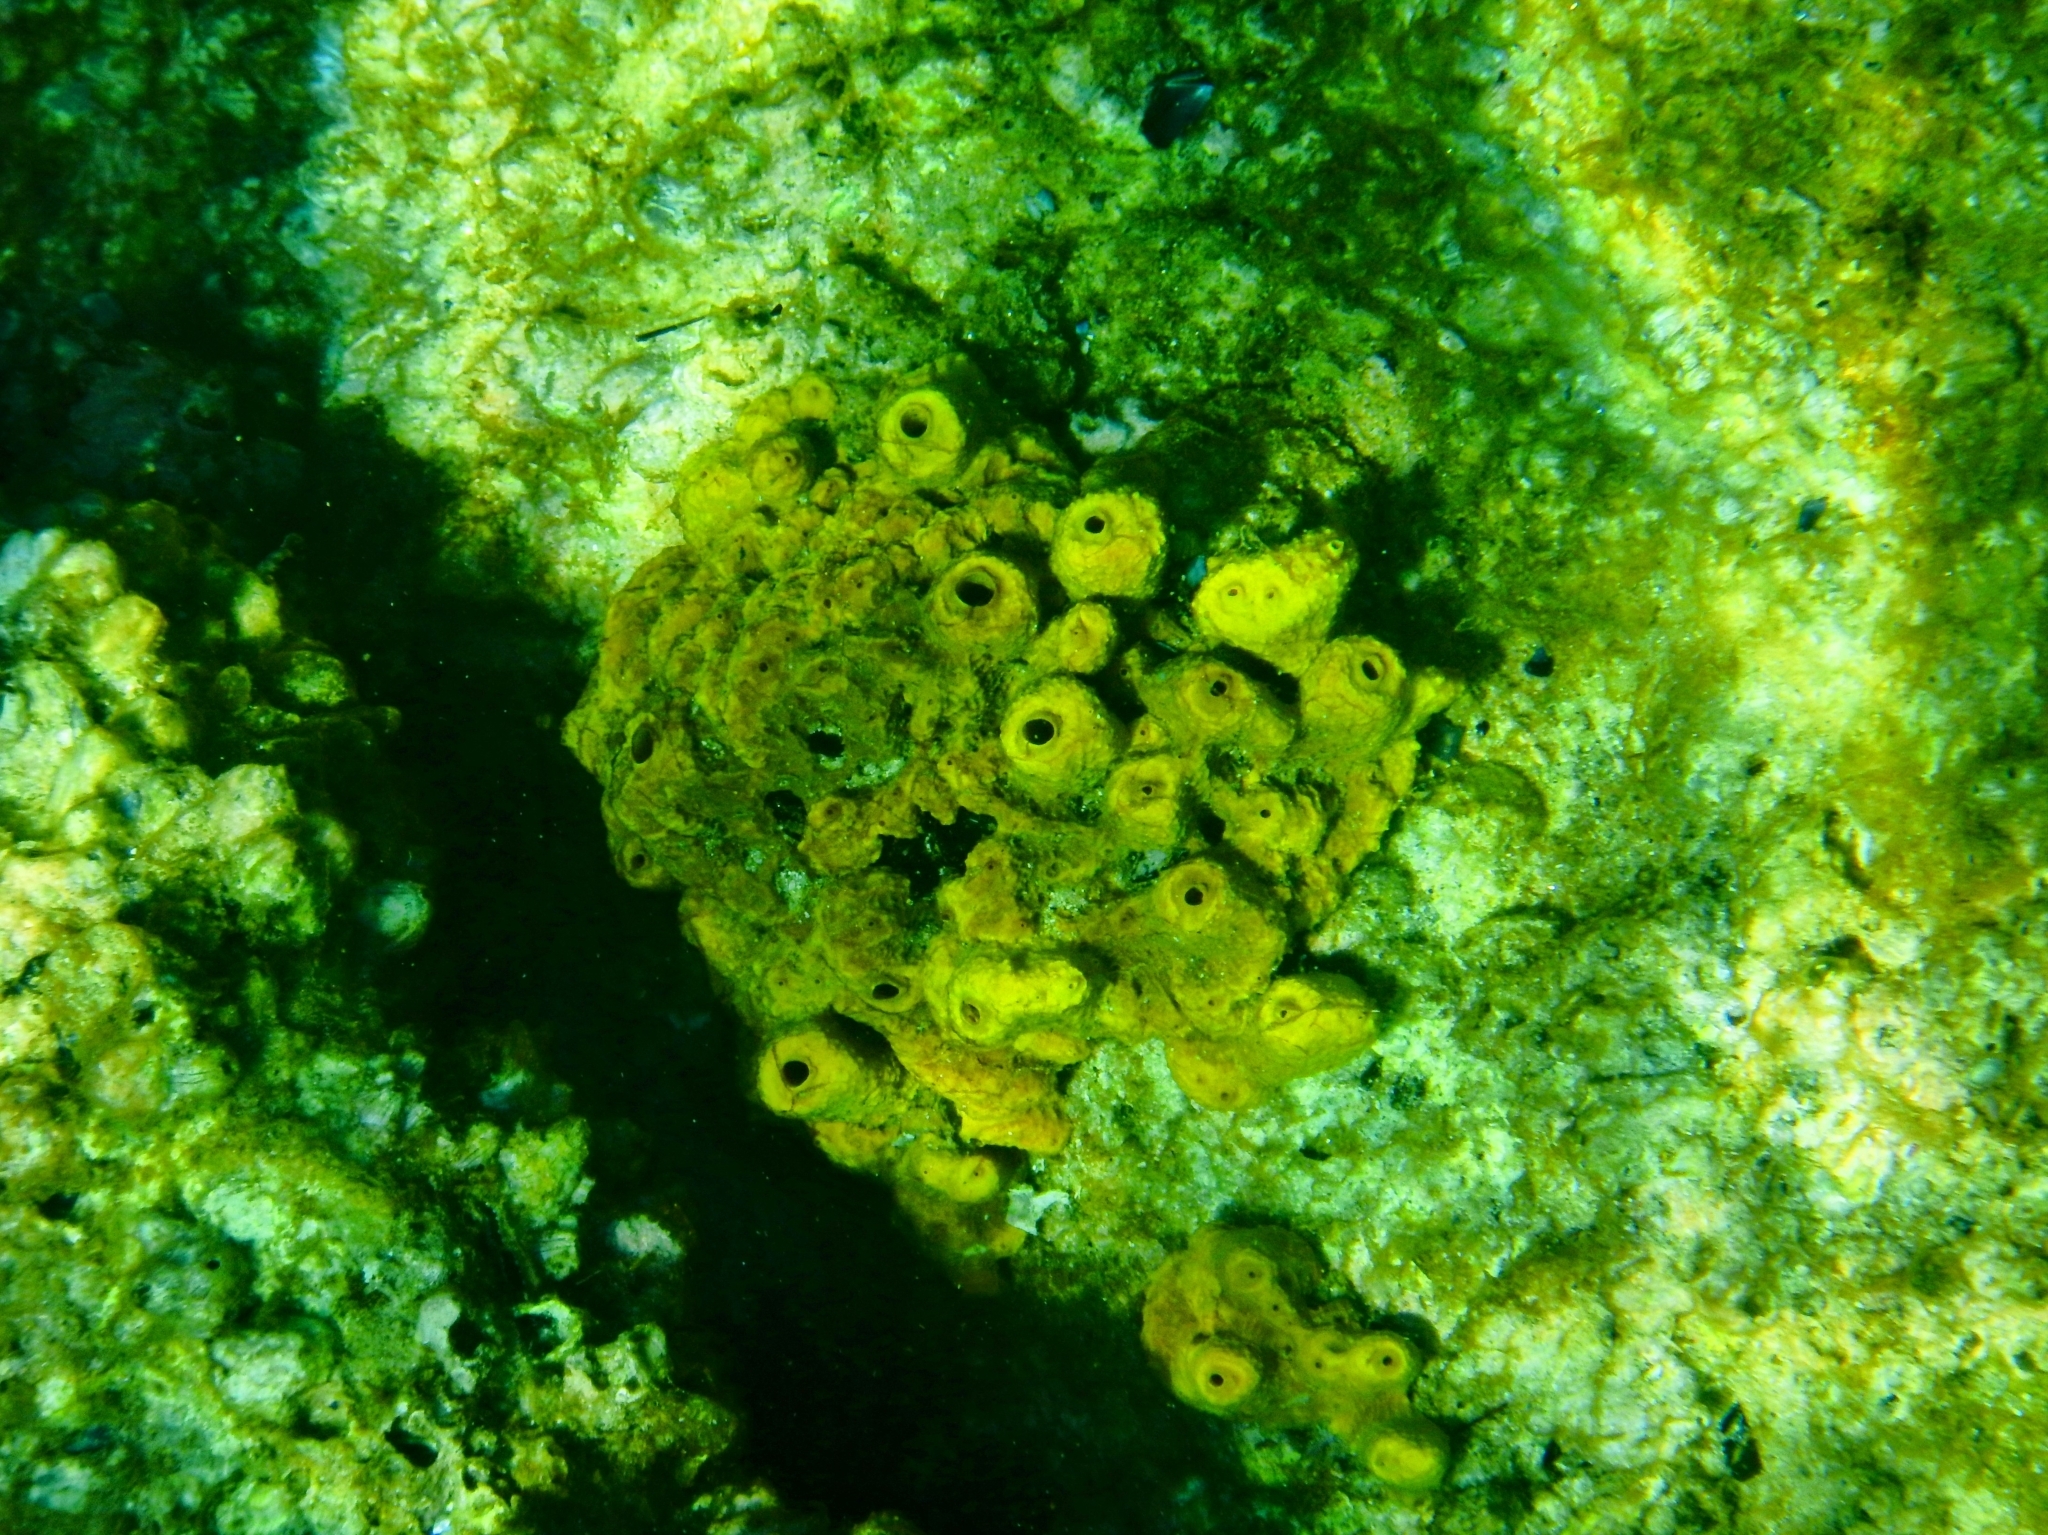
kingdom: Animalia
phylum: Porifera
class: Demospongiae
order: Verongiida
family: Aplysinidae
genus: Aplysina
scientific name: Aplysina aerophoba
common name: Aureate sponge
